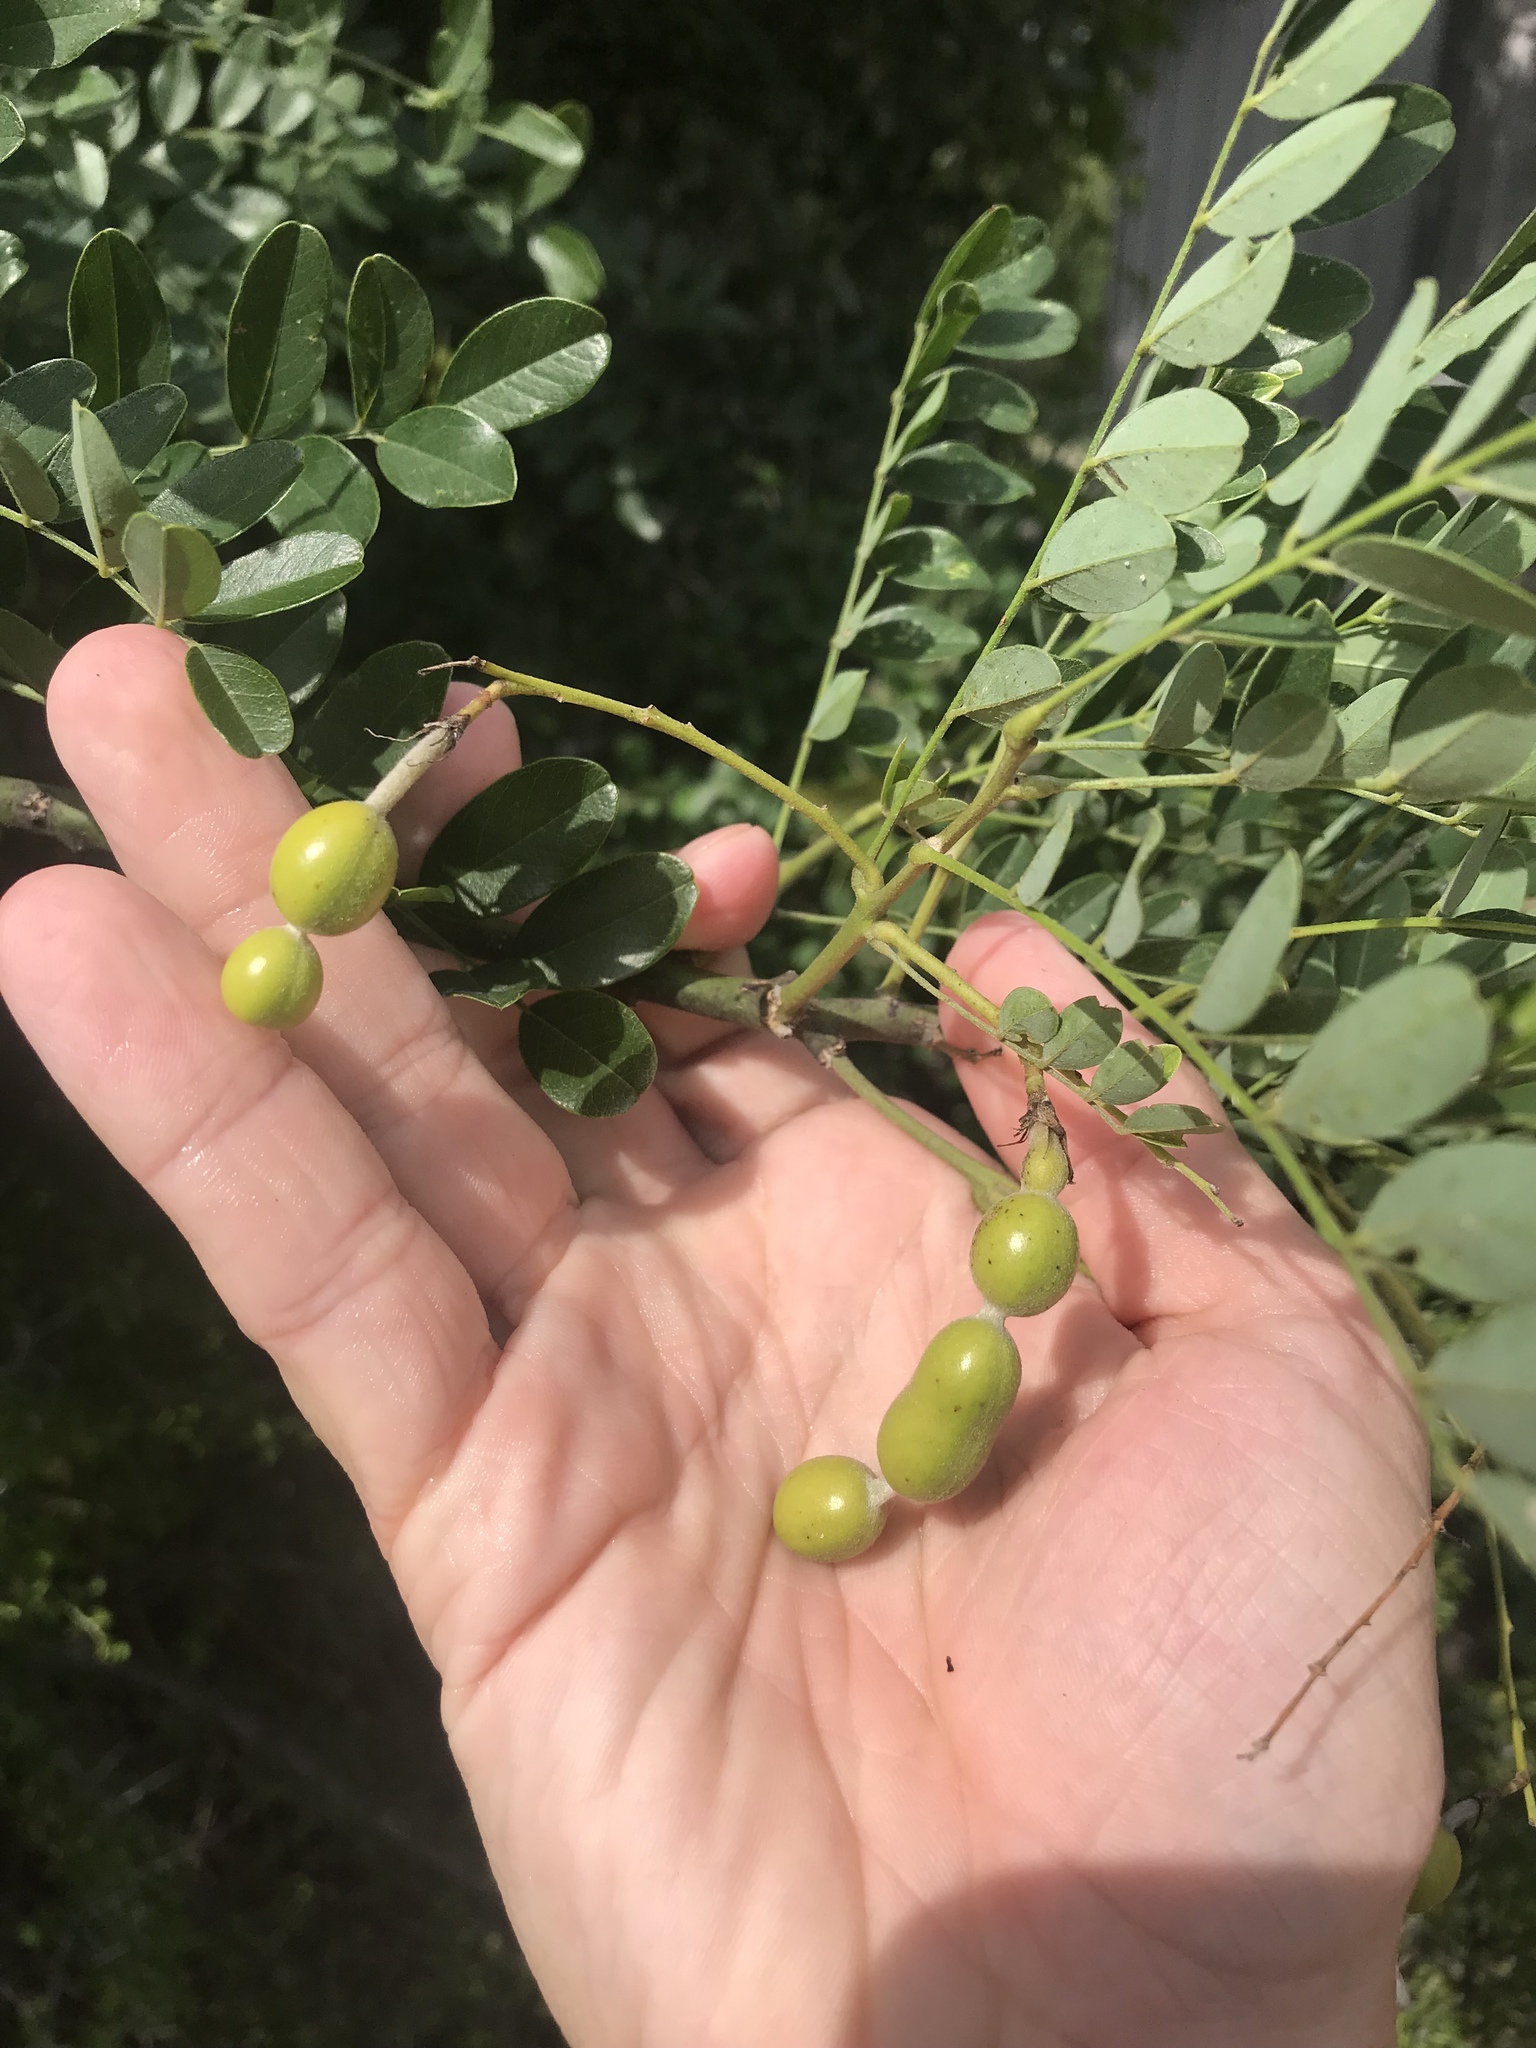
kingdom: Plantae
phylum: Tracheophyta
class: Magnoliopsida
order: Fabales
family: Fabaceae
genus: Styphnolobium
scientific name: Styphnolobium affine
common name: Texas sophora
